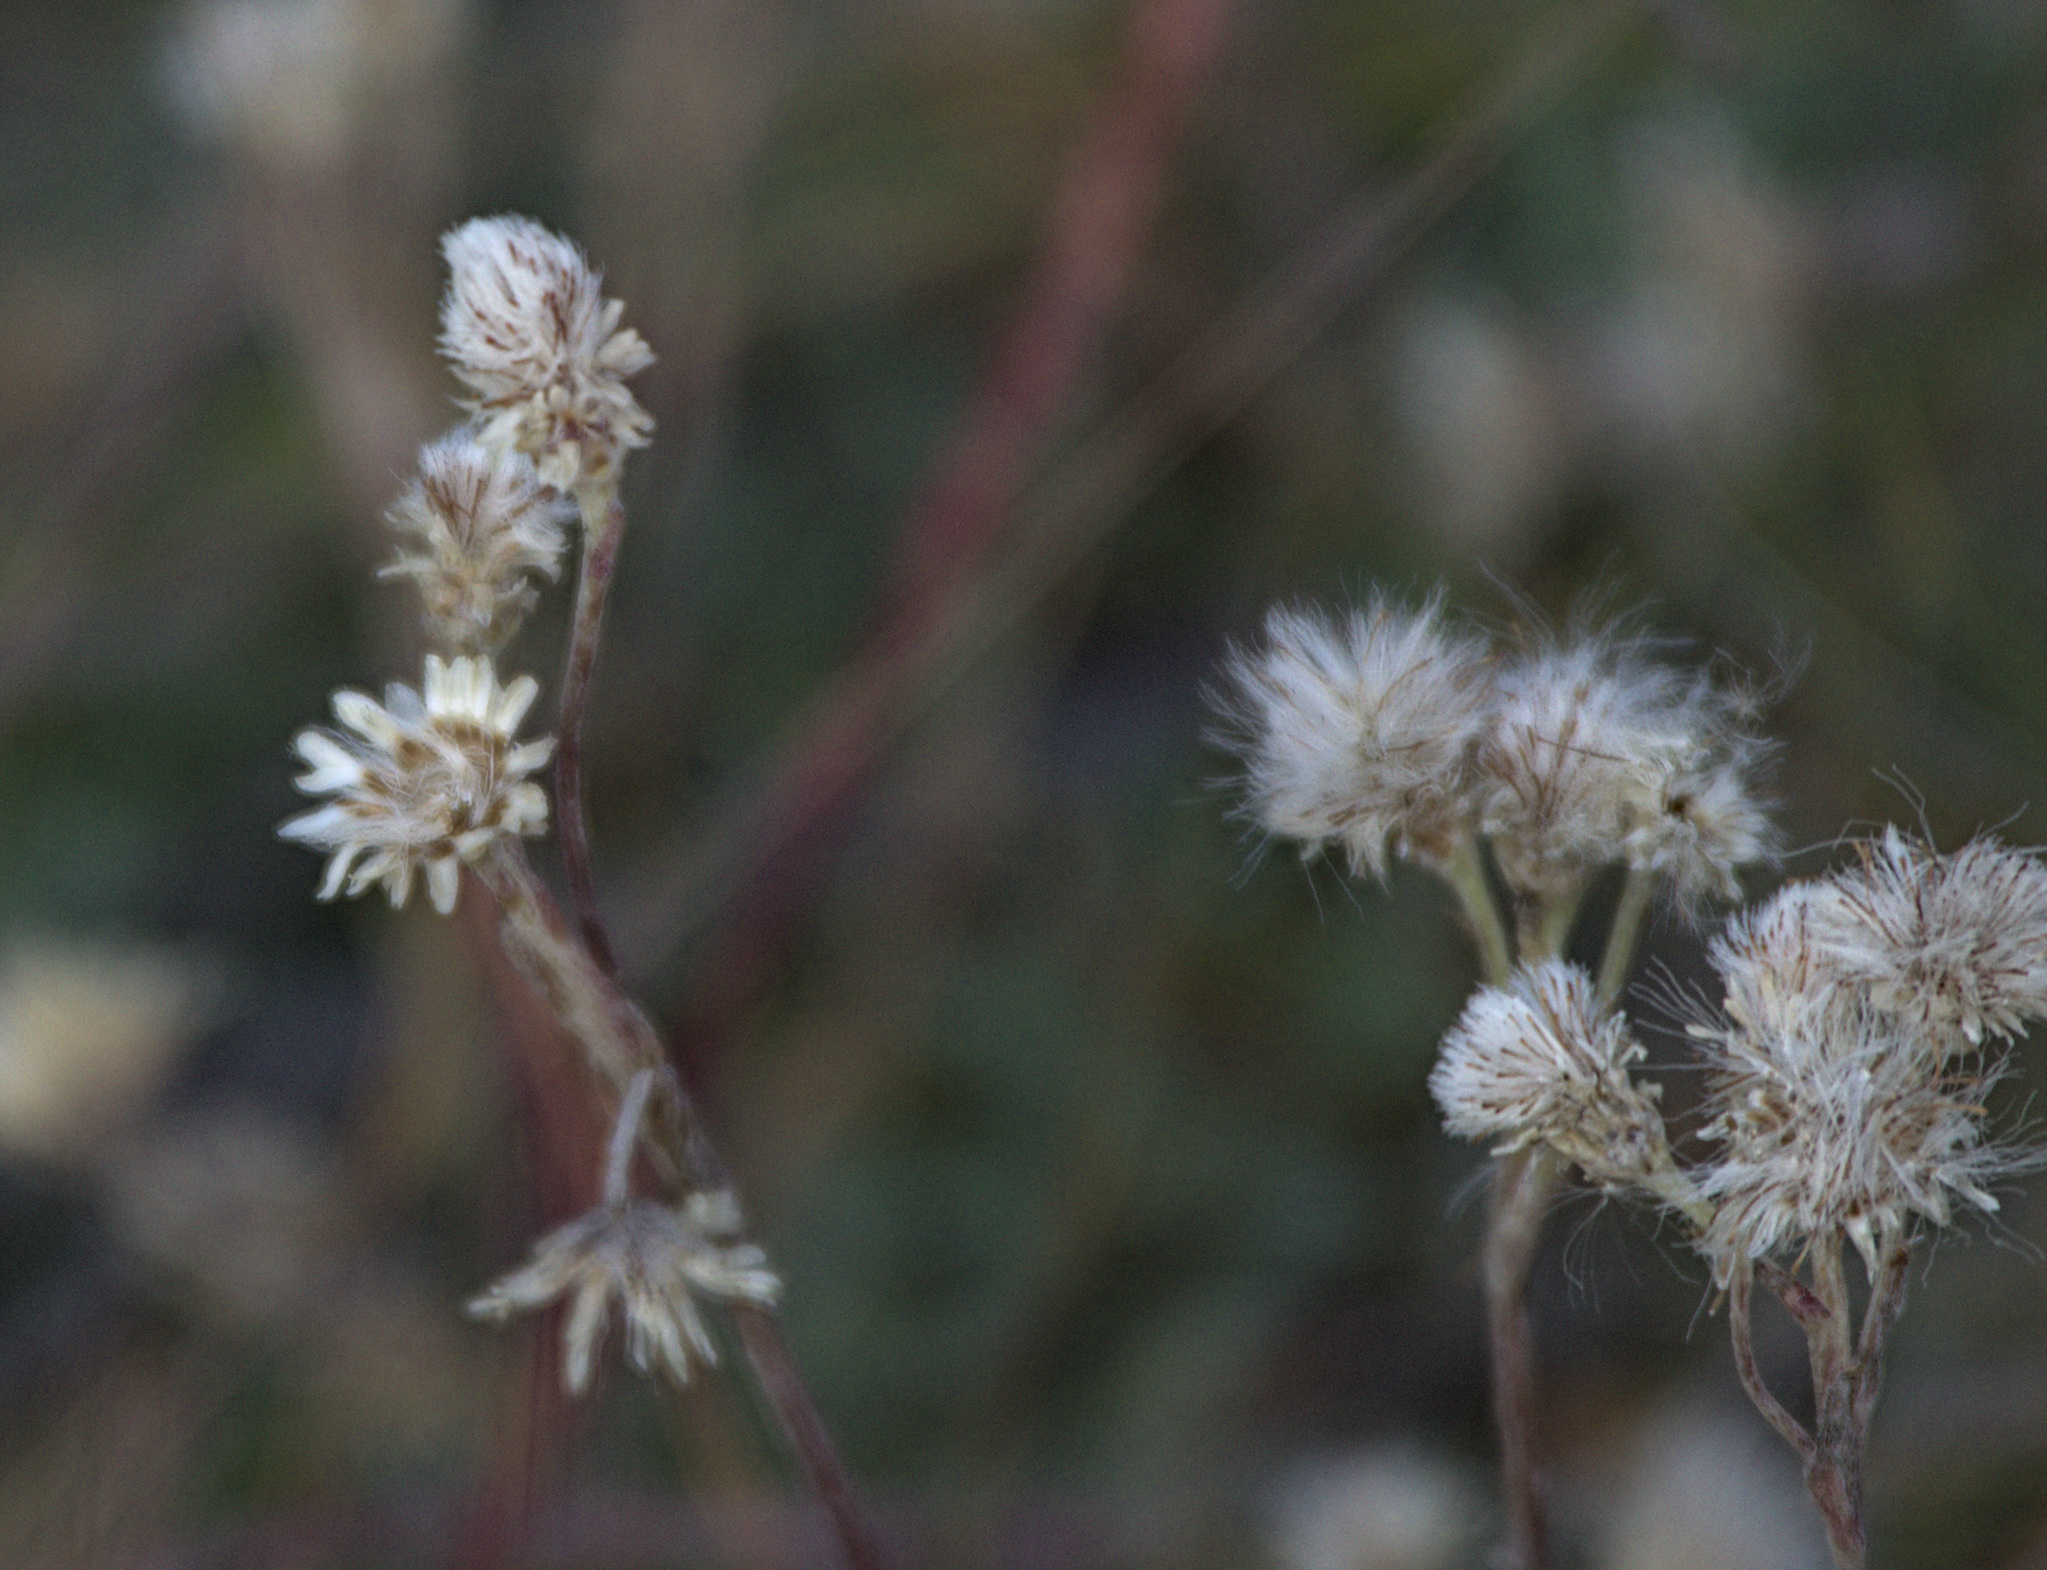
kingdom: Plantae
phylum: Tracheophyta
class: Magnoliopsida
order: Asterales
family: Asteraceae
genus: Antennaria
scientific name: Antennaria dioica
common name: Mountain everlasting
